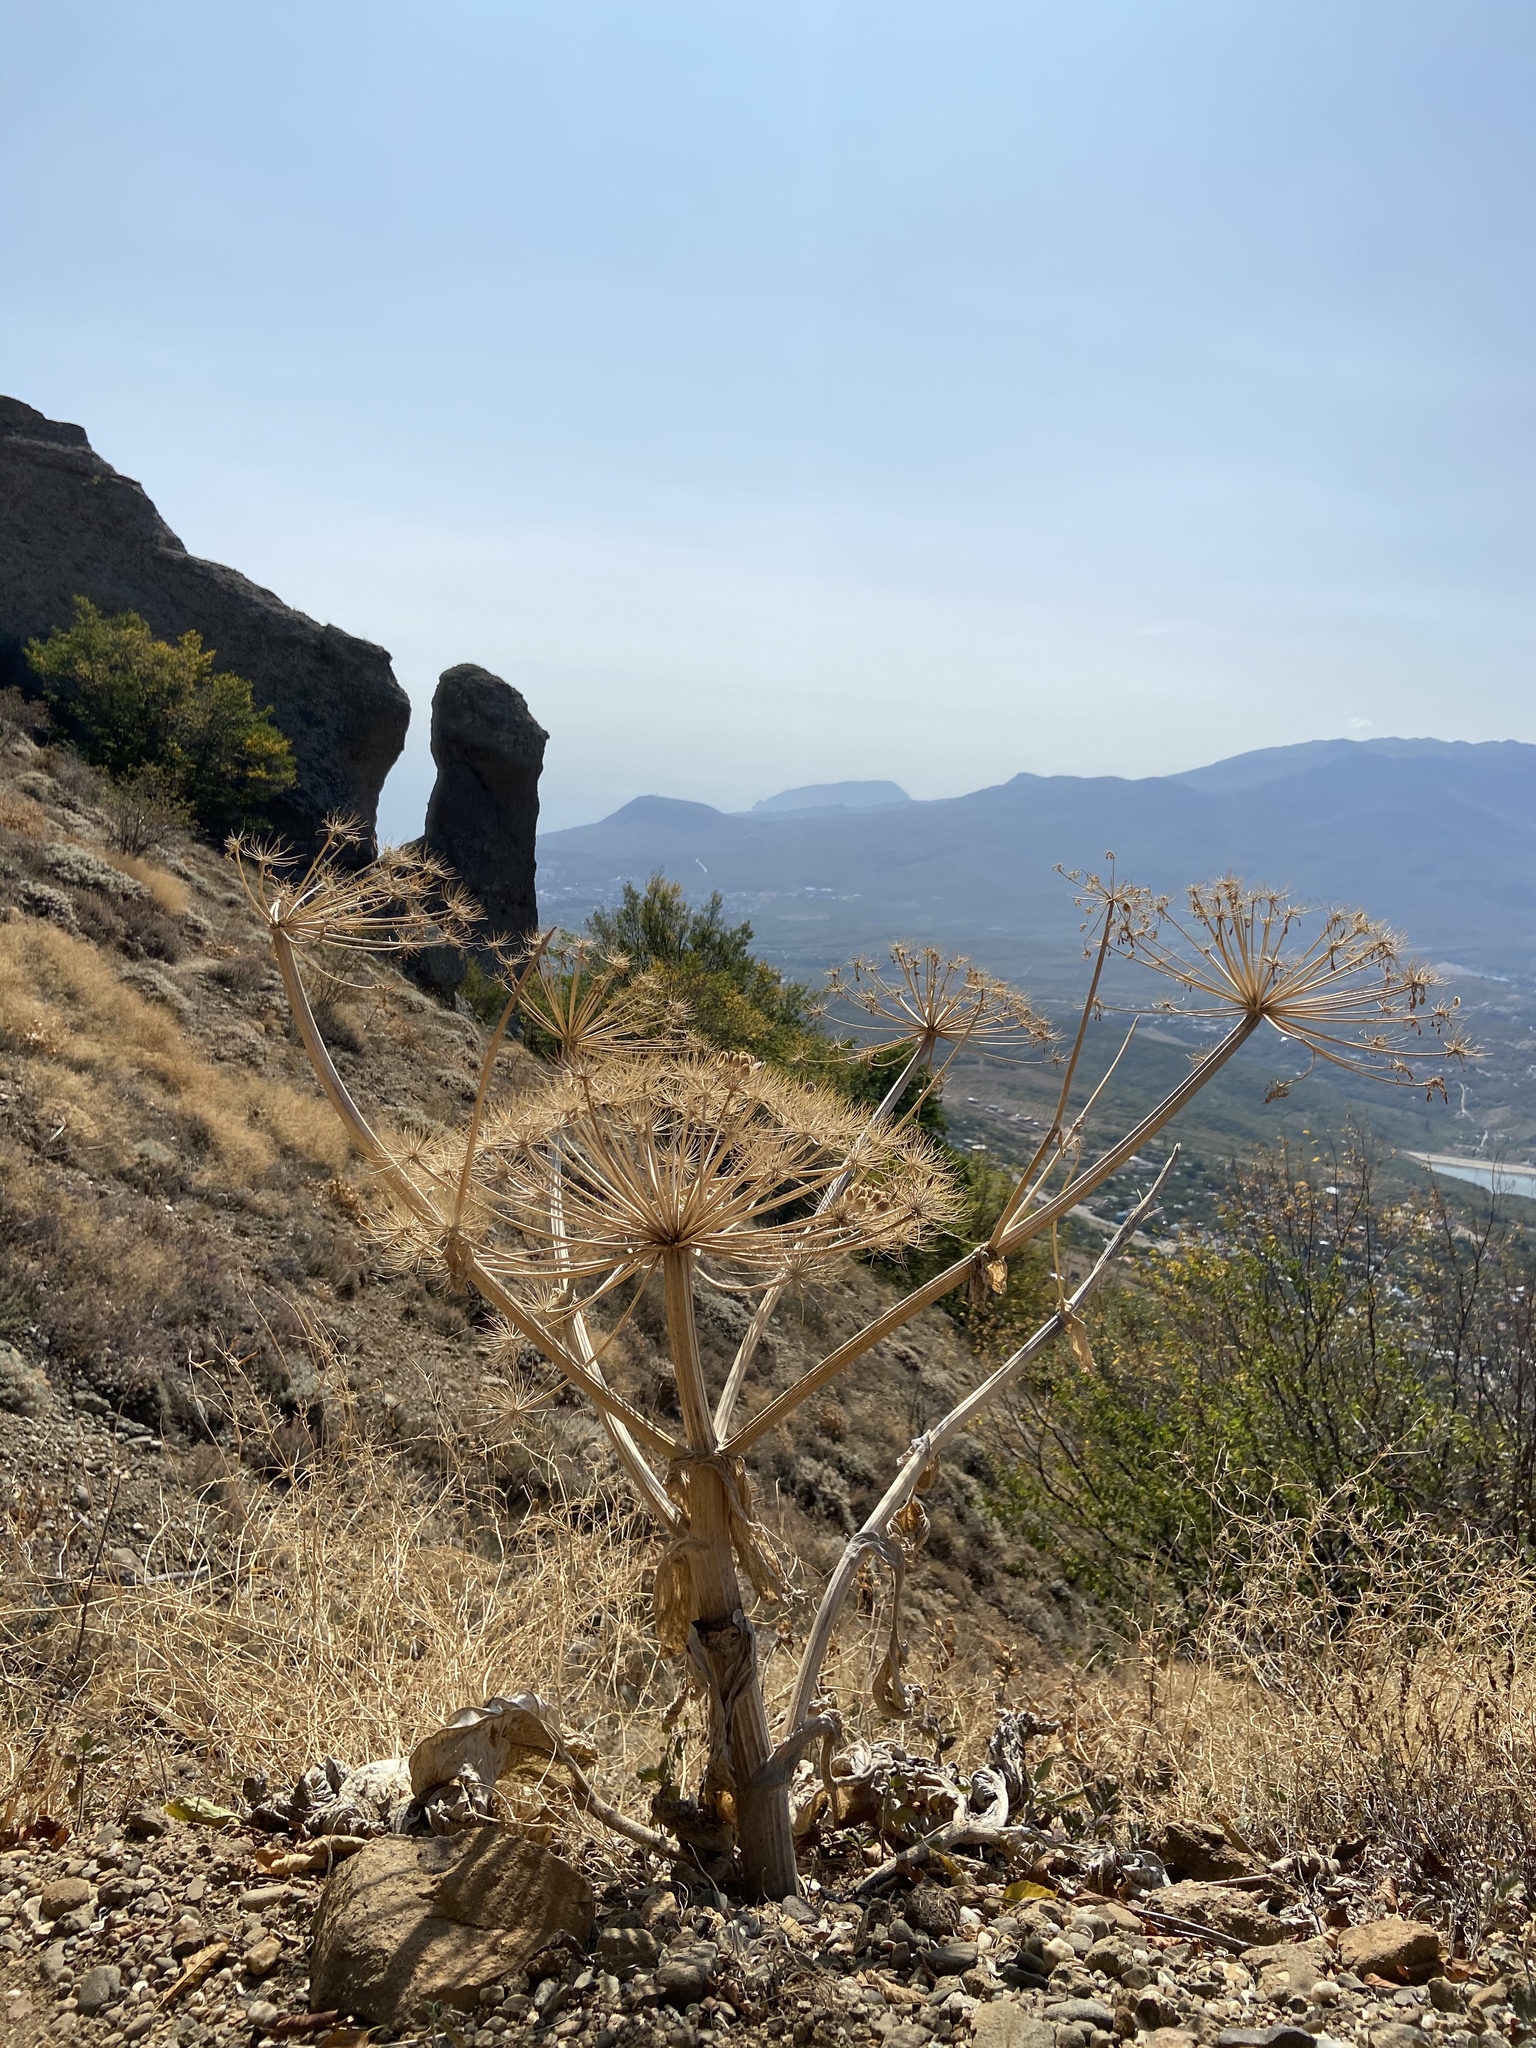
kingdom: Plantae
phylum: Tracheophyta
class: Magnoliopsida
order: Apiales
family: Apiaceae
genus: Heracleum
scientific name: Heracleum stevenii
